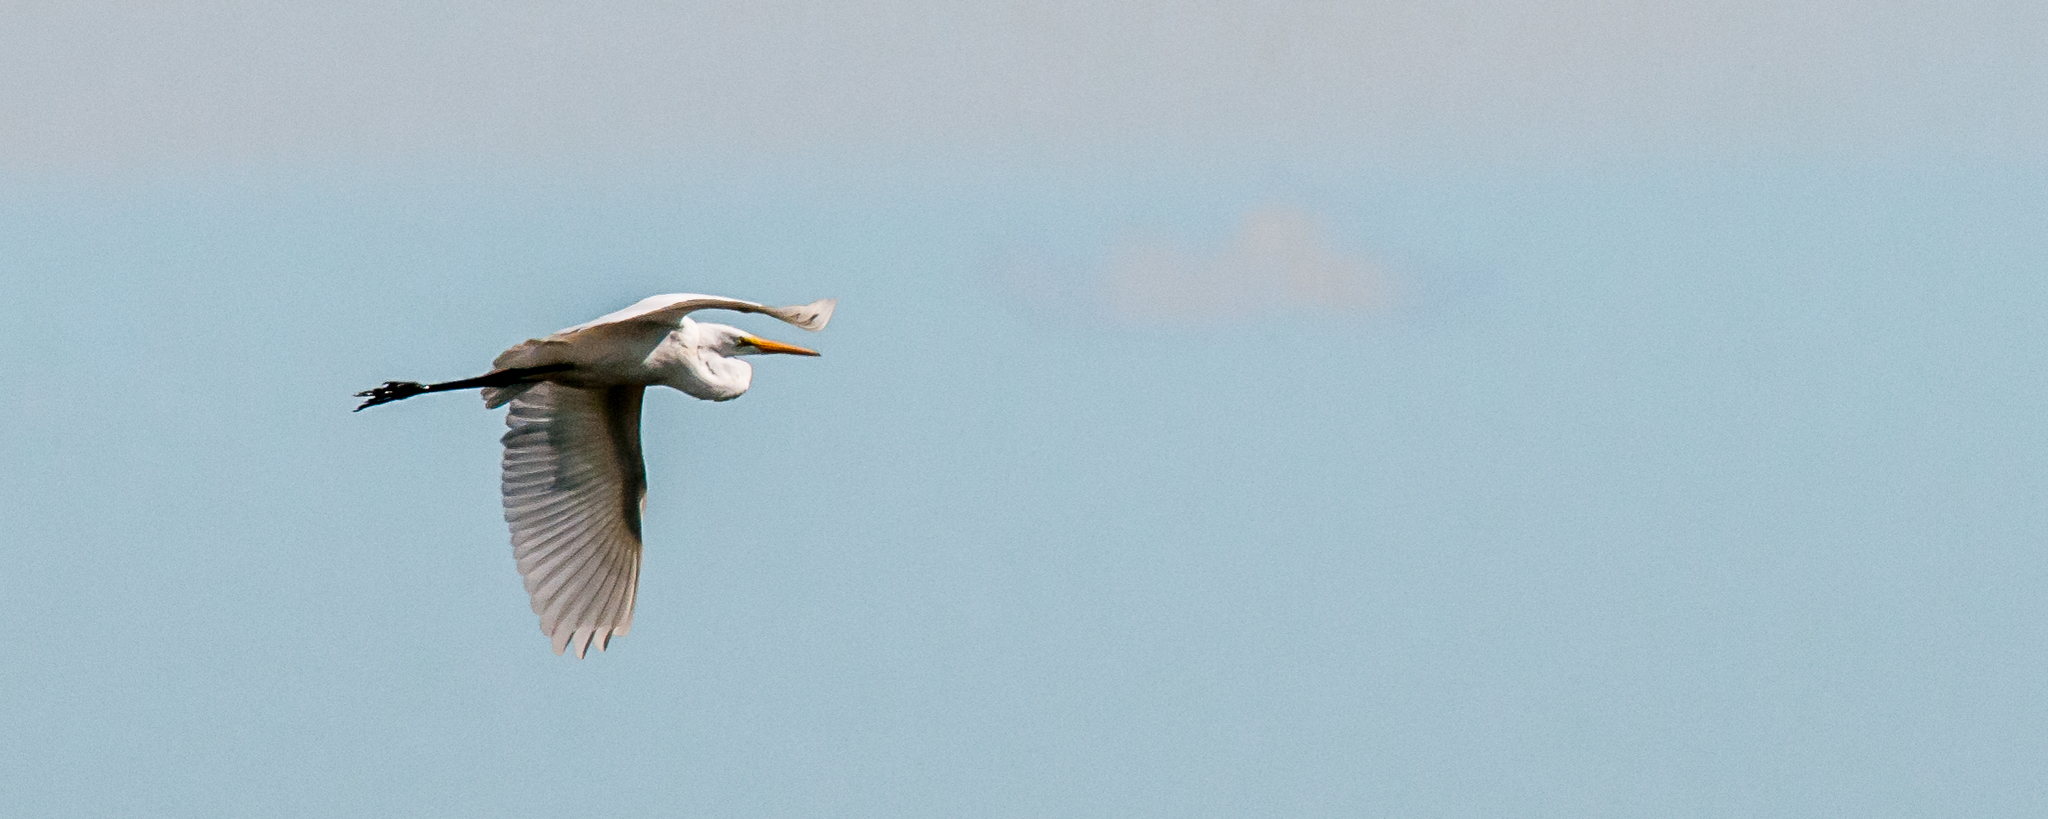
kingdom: Animalia
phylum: Chordata
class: Aves
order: Pelecaniformes
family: Ardeidae
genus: Ardea
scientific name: Ardea alba
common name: Great egret
